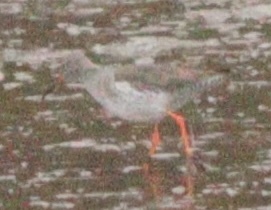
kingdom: Animalia
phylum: Chordata
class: Aves
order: Charadriiformes
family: Scolopacidae
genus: Tringa
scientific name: Tringa totanus
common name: Common redshank
